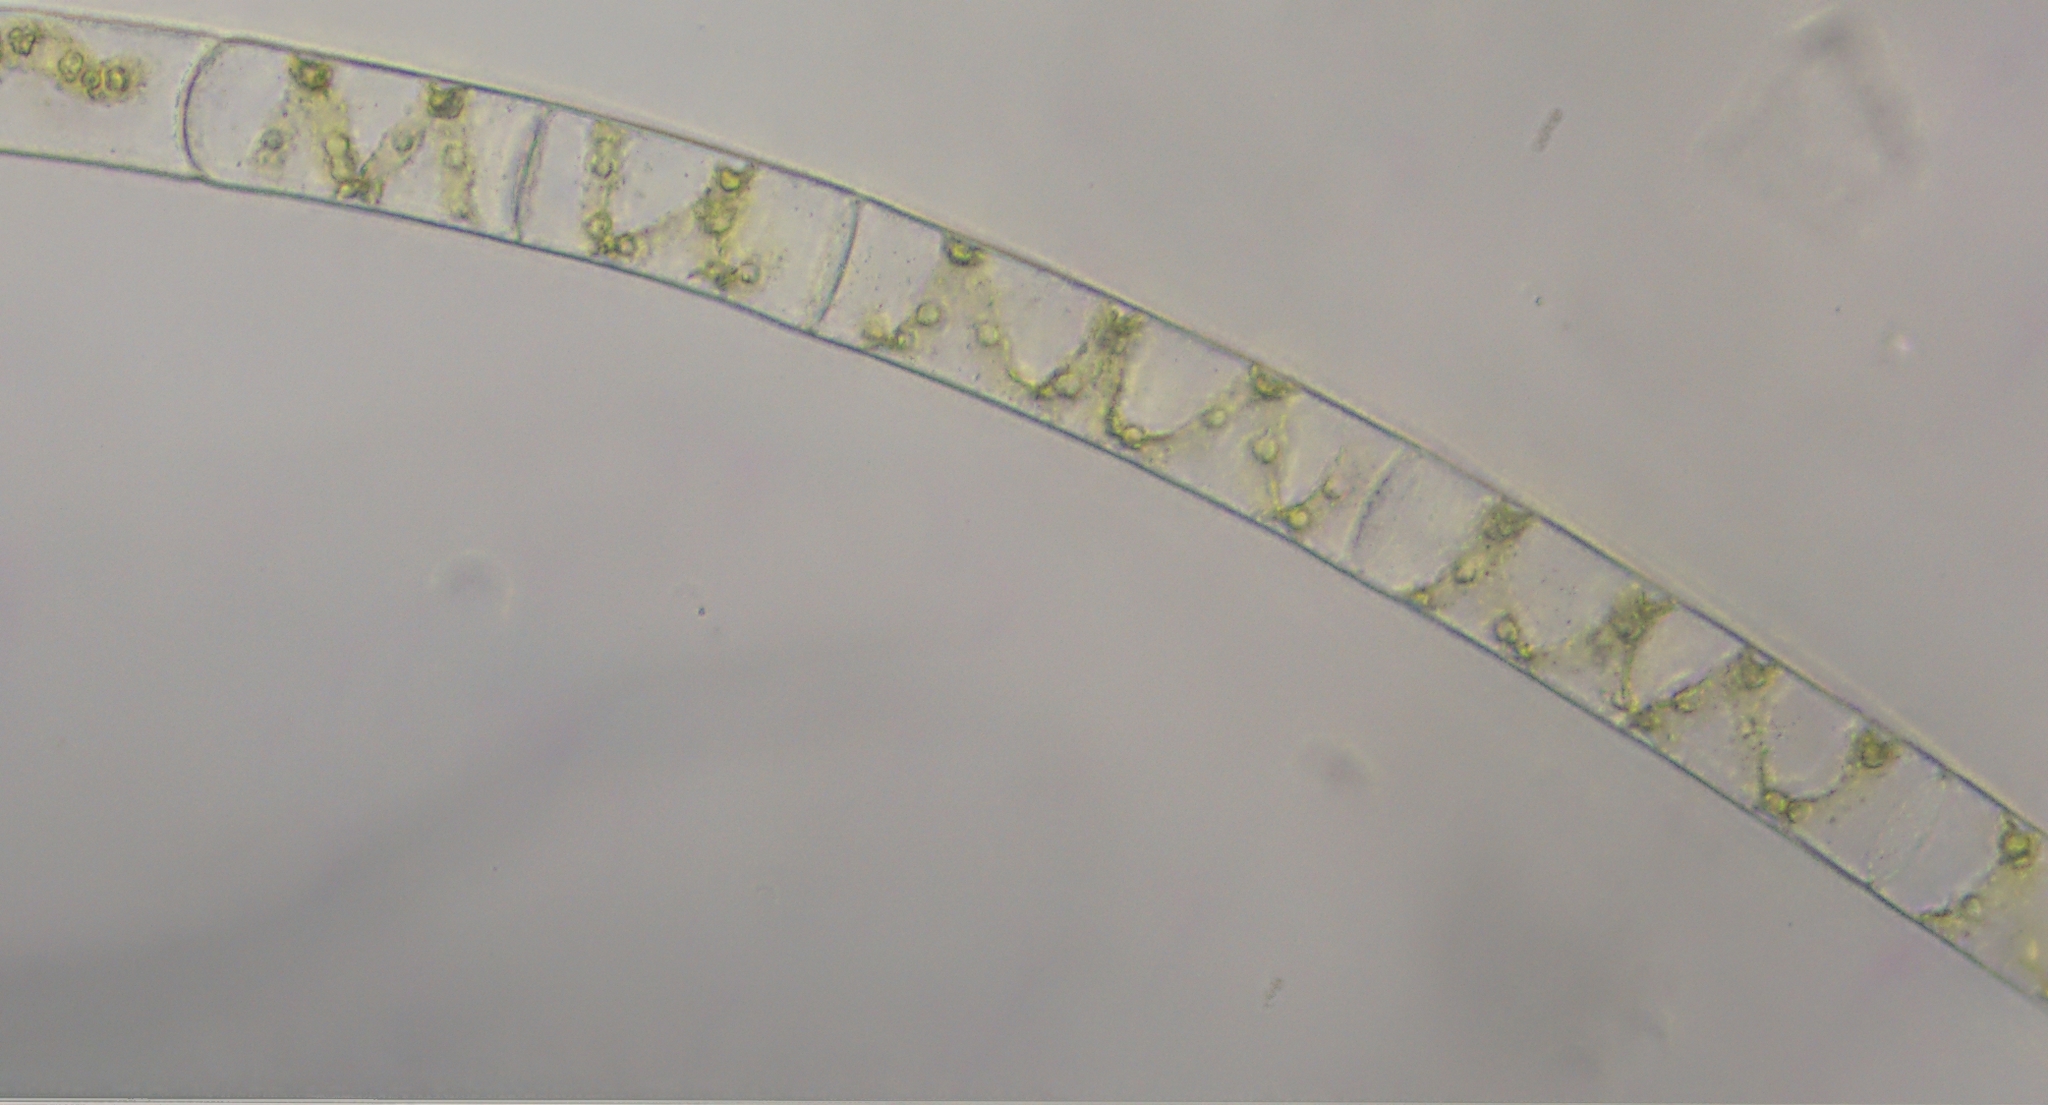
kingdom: Plantae
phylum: Charophyta
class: Zygnematophyceae
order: Zygnematales
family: Zygnemataceae
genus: Spirogyra
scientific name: Spirogyra
